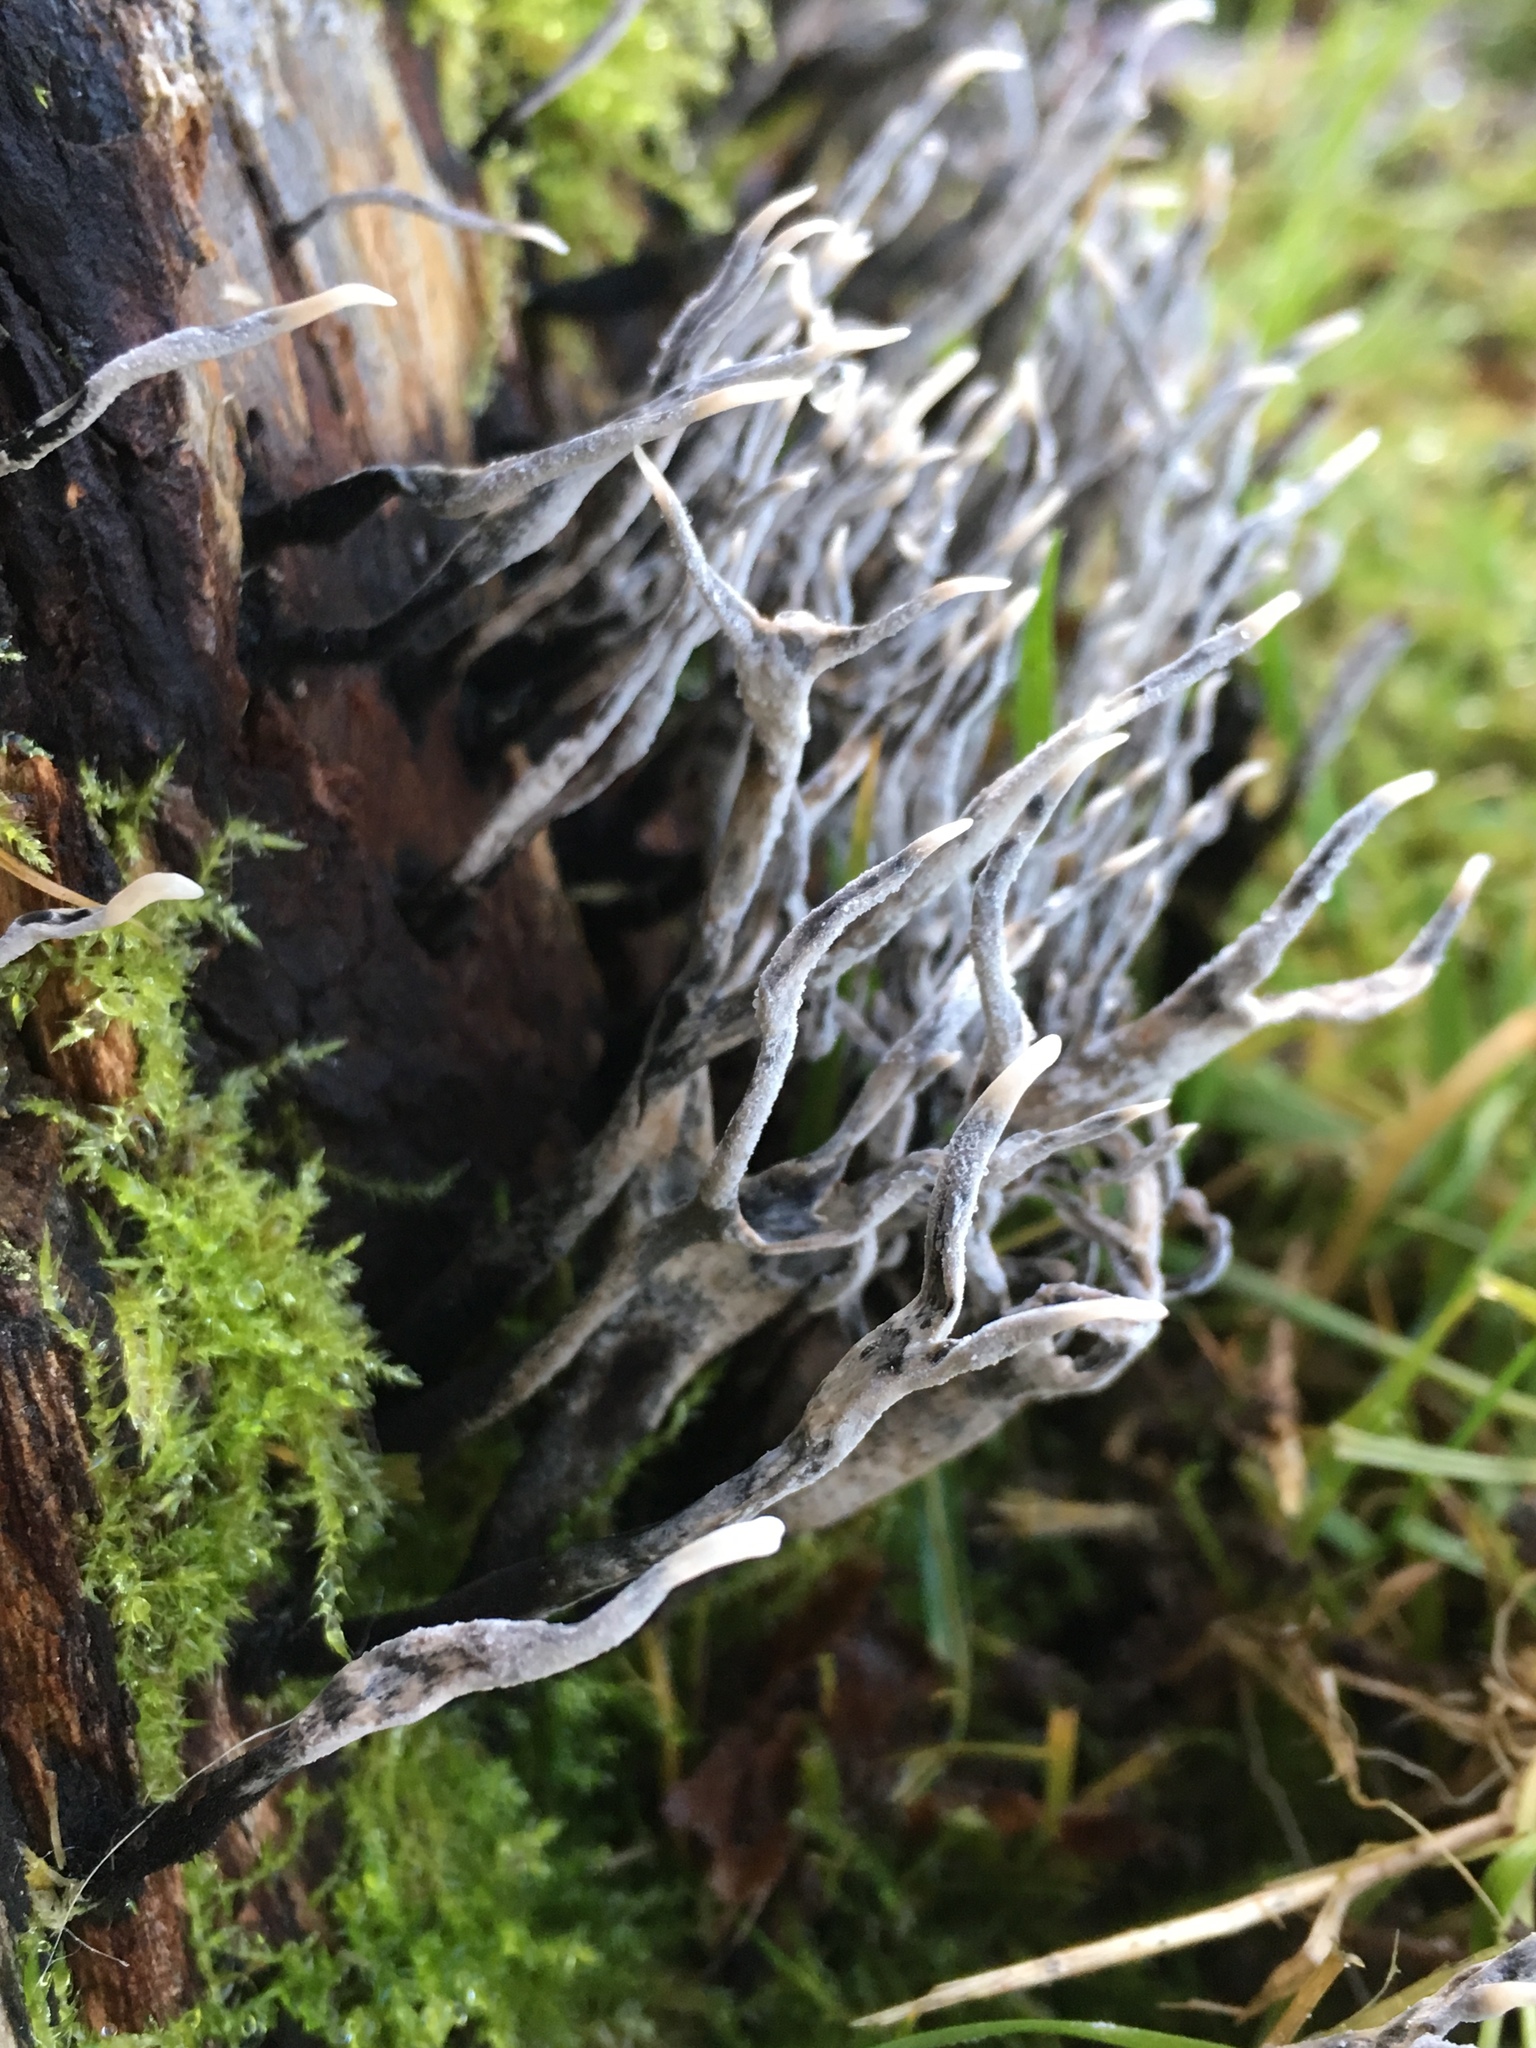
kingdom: Fungi
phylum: Ascomycota
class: Sordariomycetes
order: Xylariales
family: Xylariaceae
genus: Xylaria
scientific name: Xylaria hypoxylon
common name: Candle-snuff fungus
